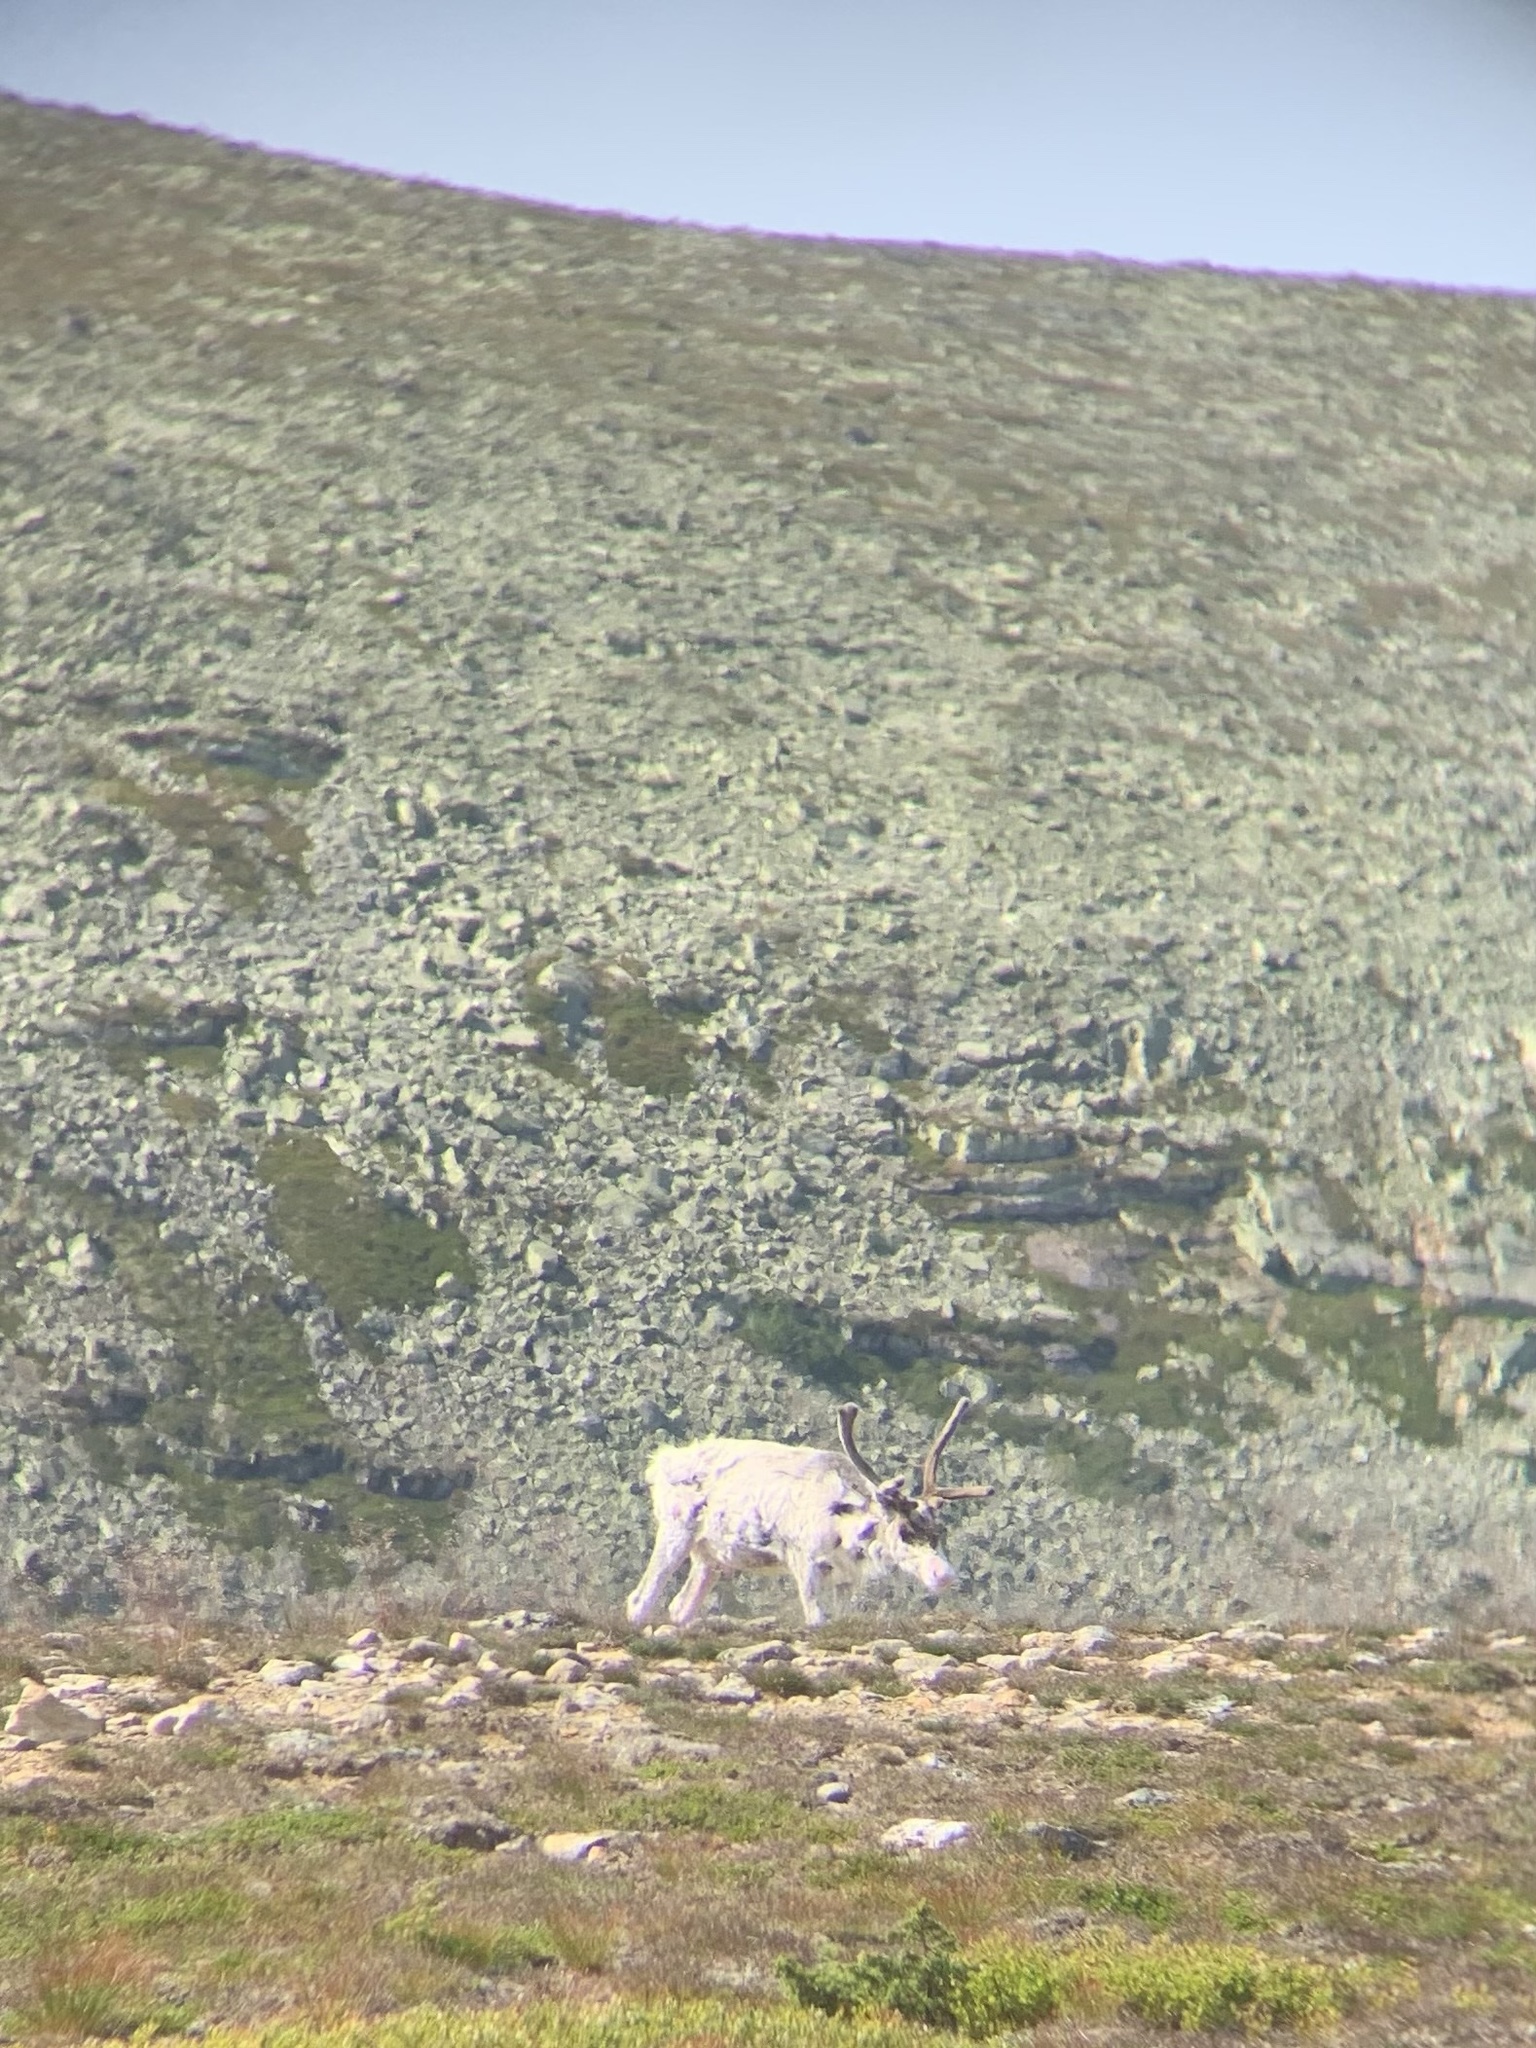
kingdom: Animalia
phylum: Chordata
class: Mammalia
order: Artiodactyla
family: Cervidae
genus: Rangifer
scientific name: Rangifer tarandus
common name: Reindeer
